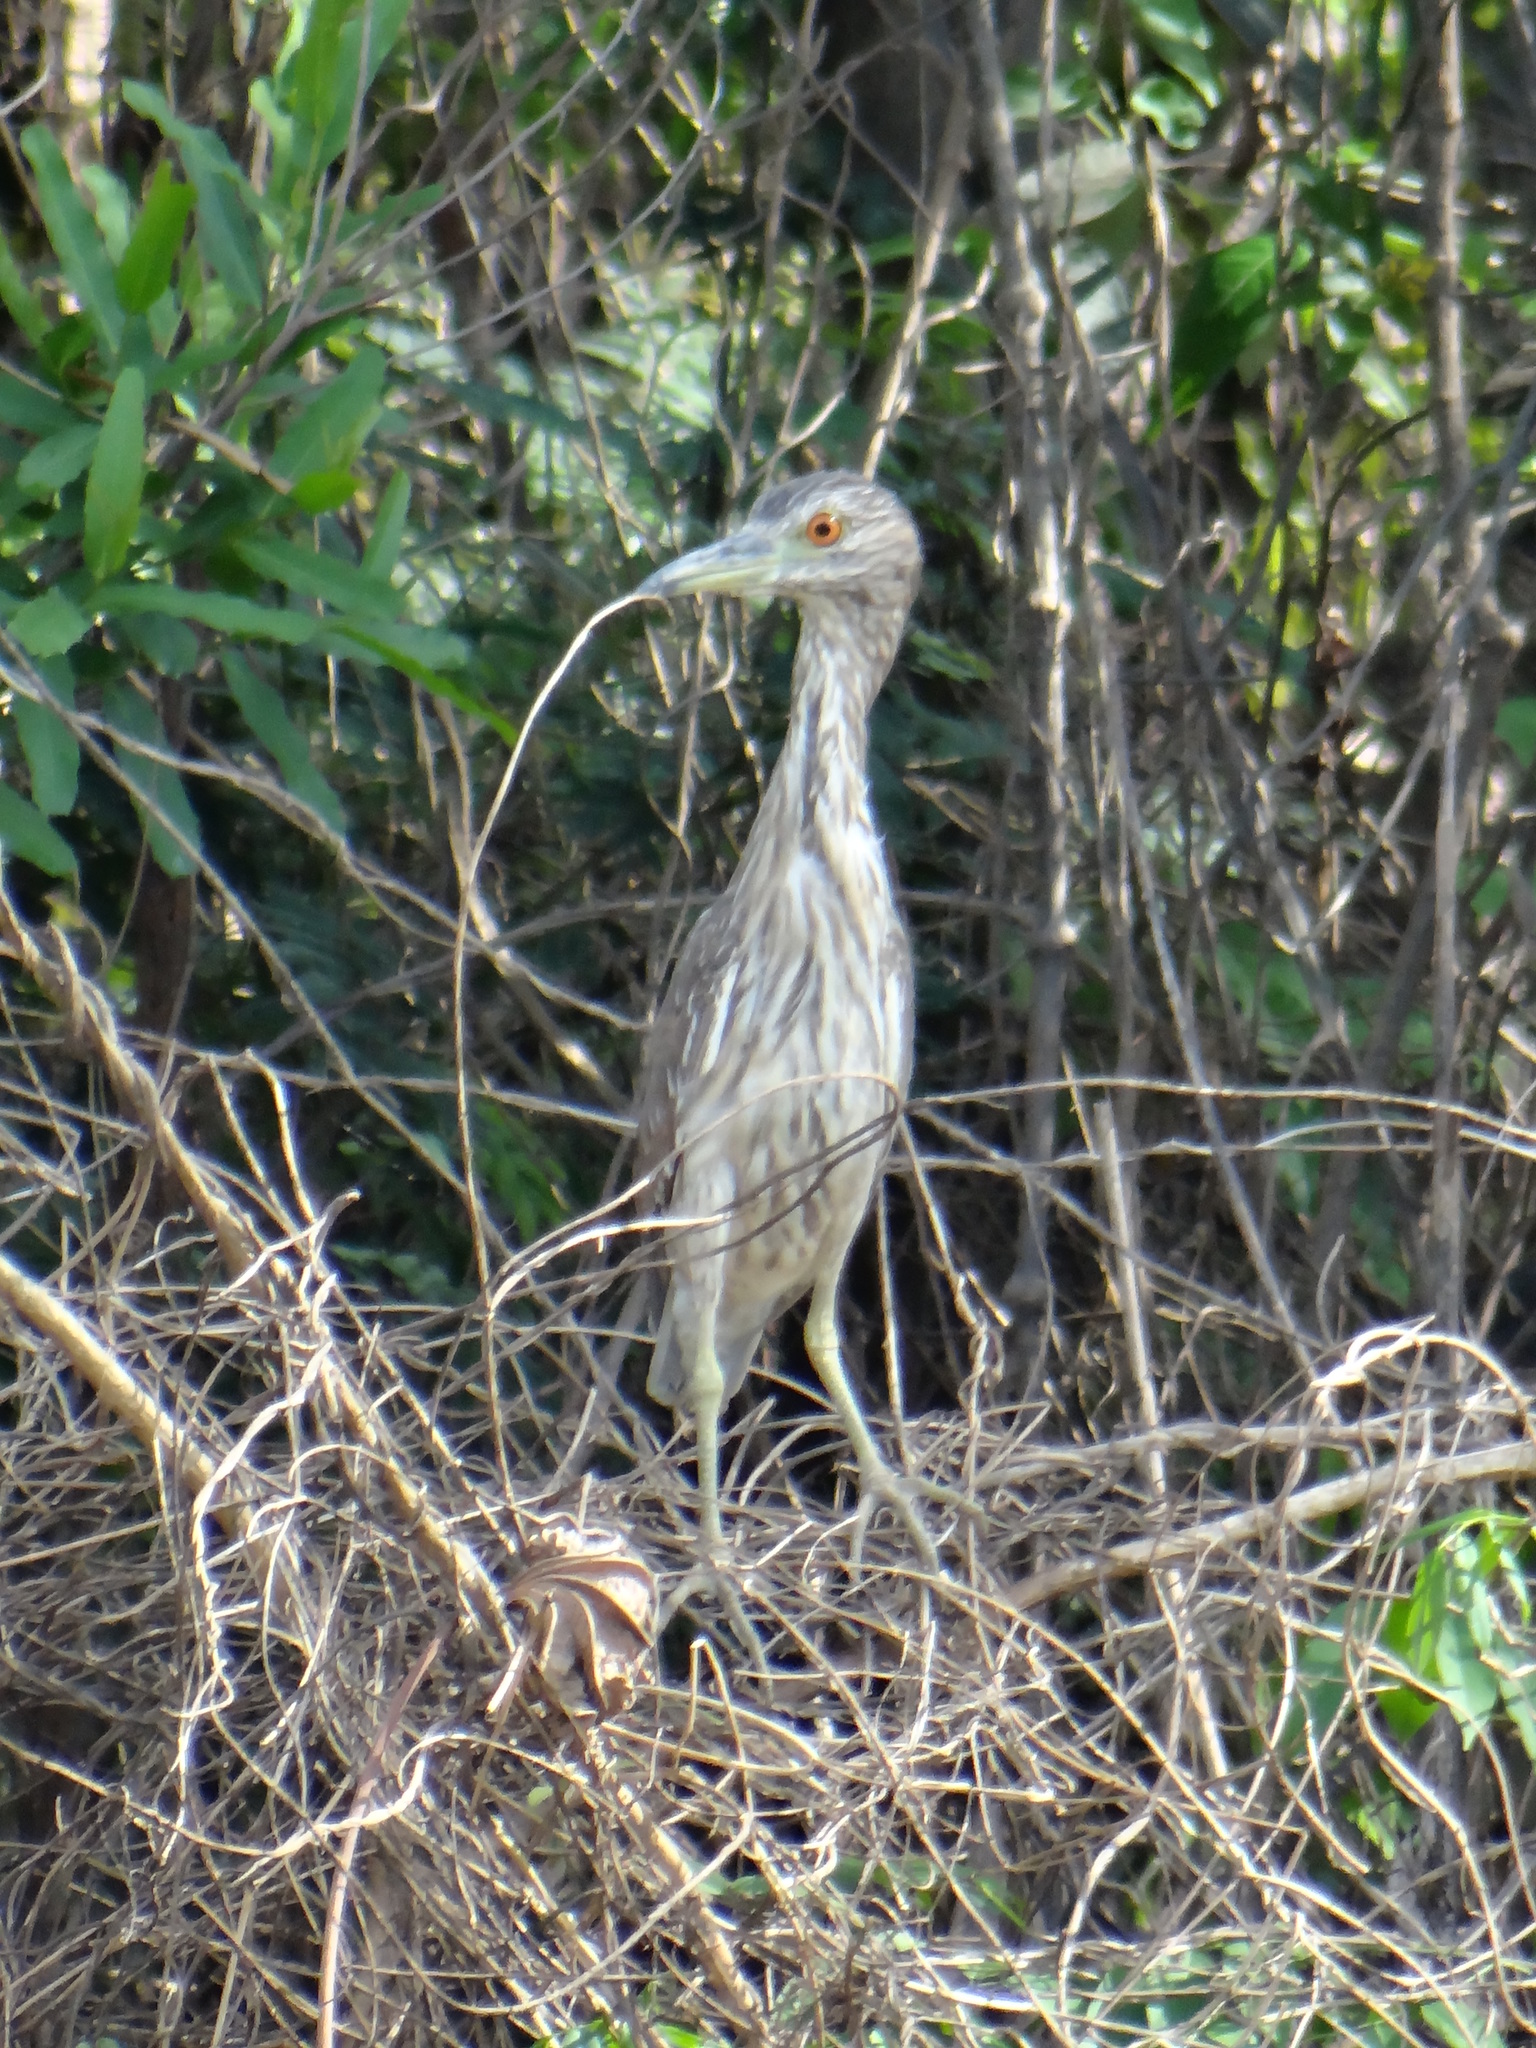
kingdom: Animalia
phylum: Chordata
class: Aves
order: Pelecaniformes
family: Ardeidae
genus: Nycticorax
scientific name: Nycticorax nycticorax
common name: Black-crowned night heron
